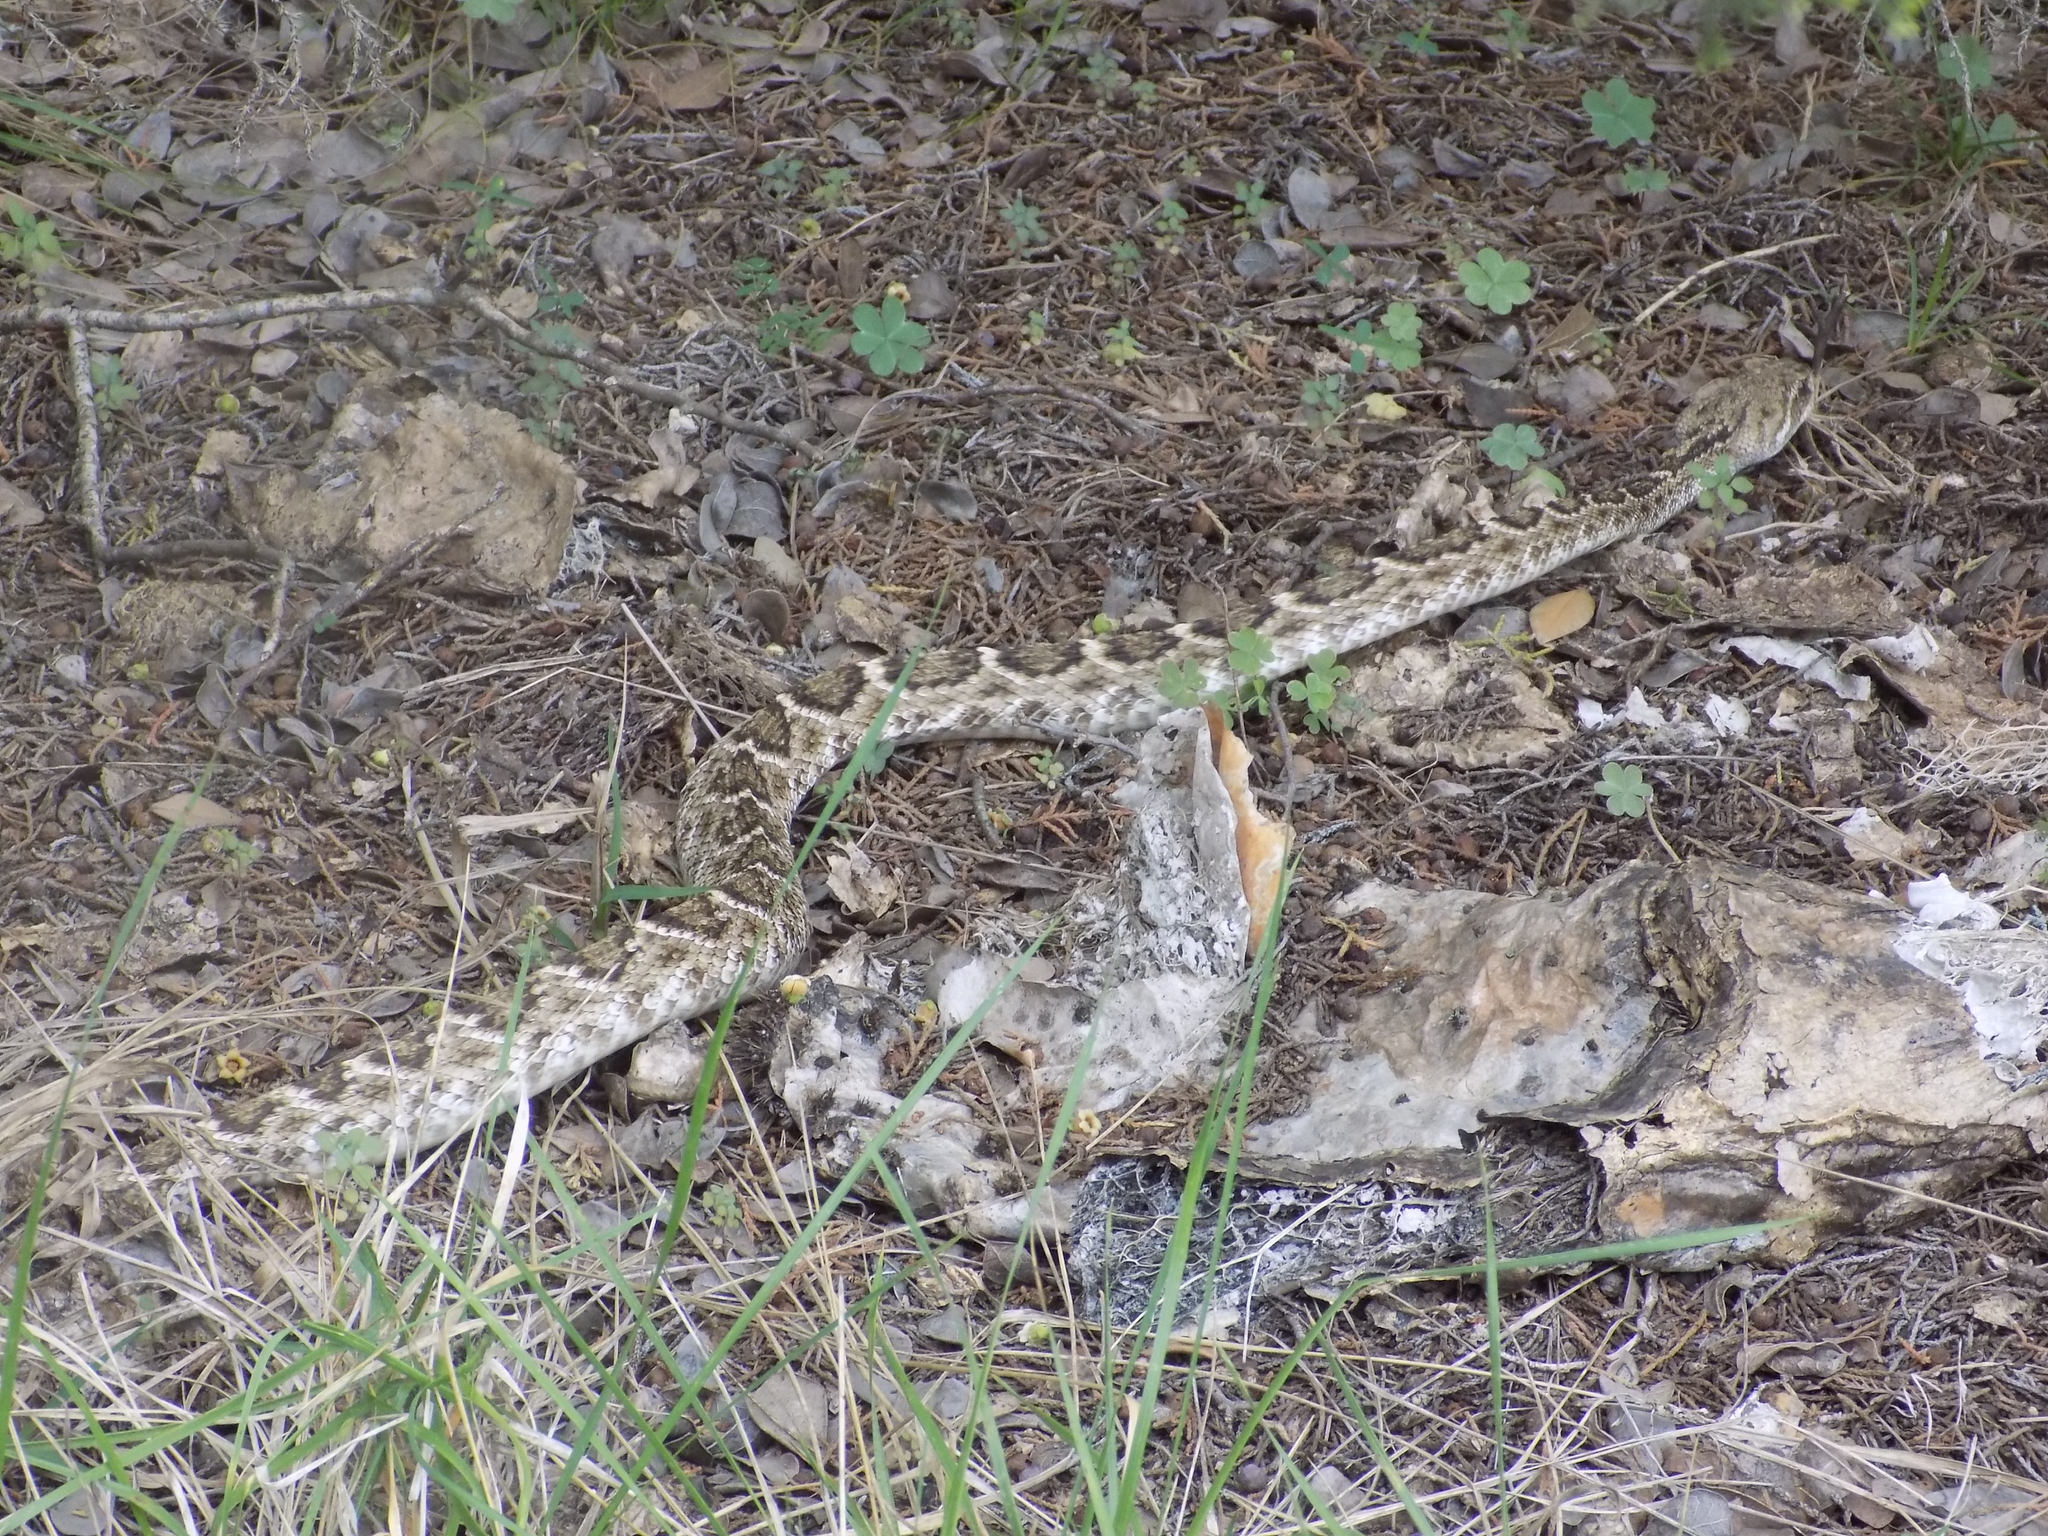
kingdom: Animalia
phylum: Chordata
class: Squamata
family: Viperidae
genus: Crotalus
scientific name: Crotalus atrox
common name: Western diamond-backed rattlesnake
